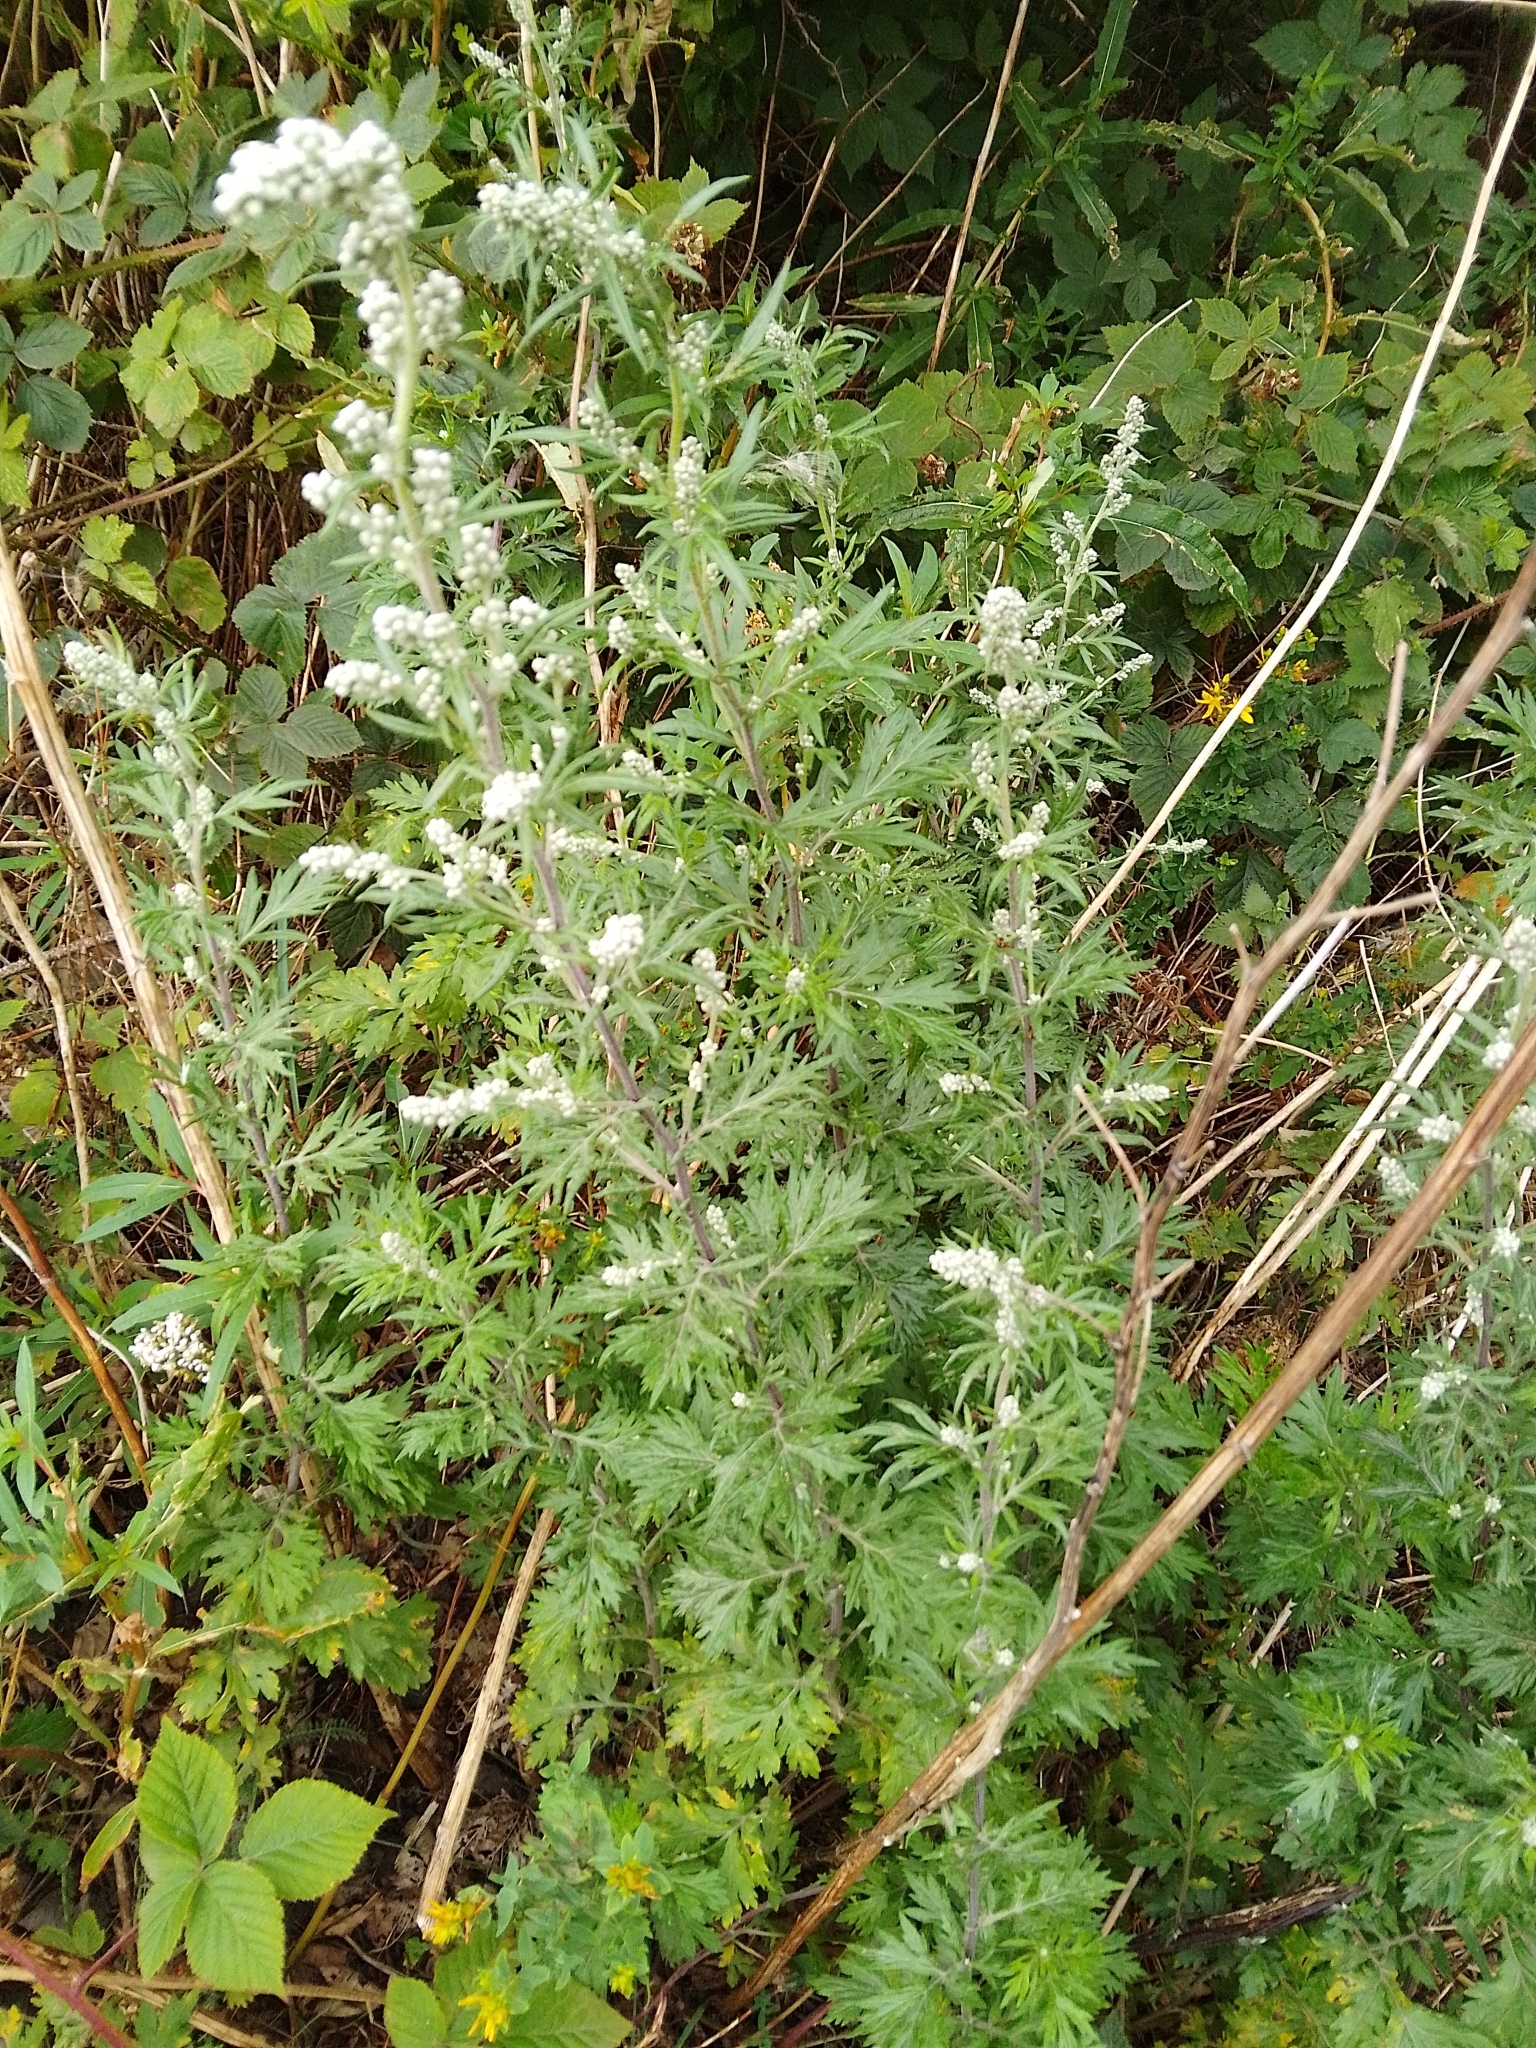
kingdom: Plantae
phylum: Tracheophyta
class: Magnoliopsida
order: Asterales
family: Asteraceae
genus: Artemisia
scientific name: Artemisia vulgaris
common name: Mugwort
